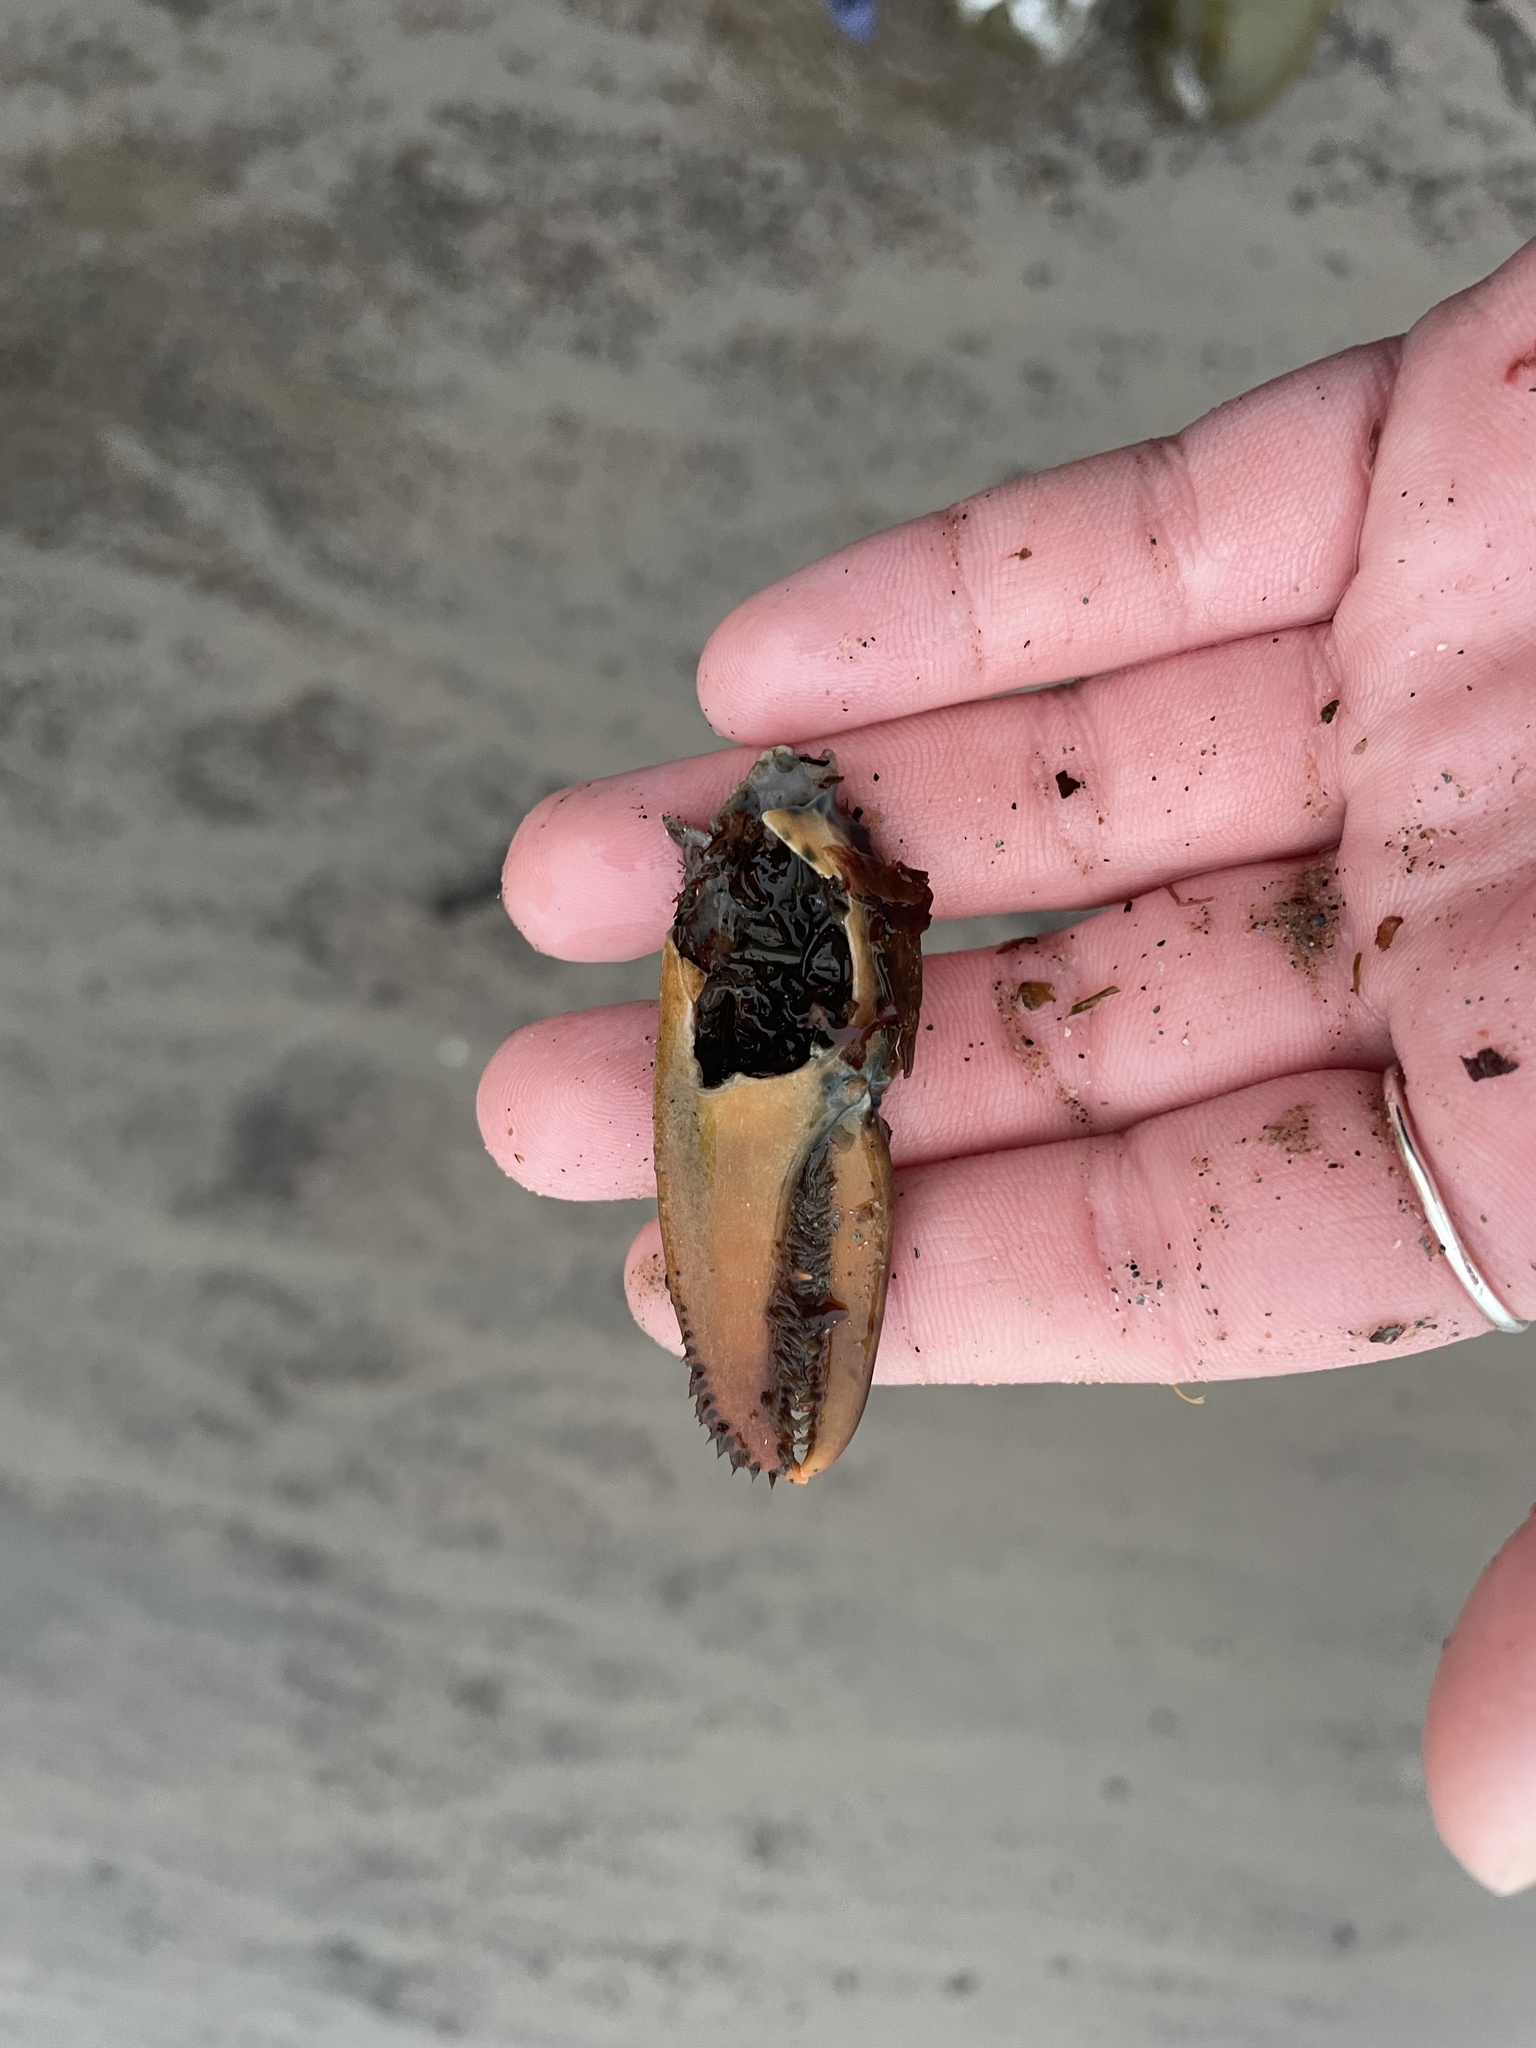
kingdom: Animalia
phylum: Arthropoda
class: Malacostraca
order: Decapoda
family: Nephropidae
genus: Homarus
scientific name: Homarus americanus
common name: American lobster
